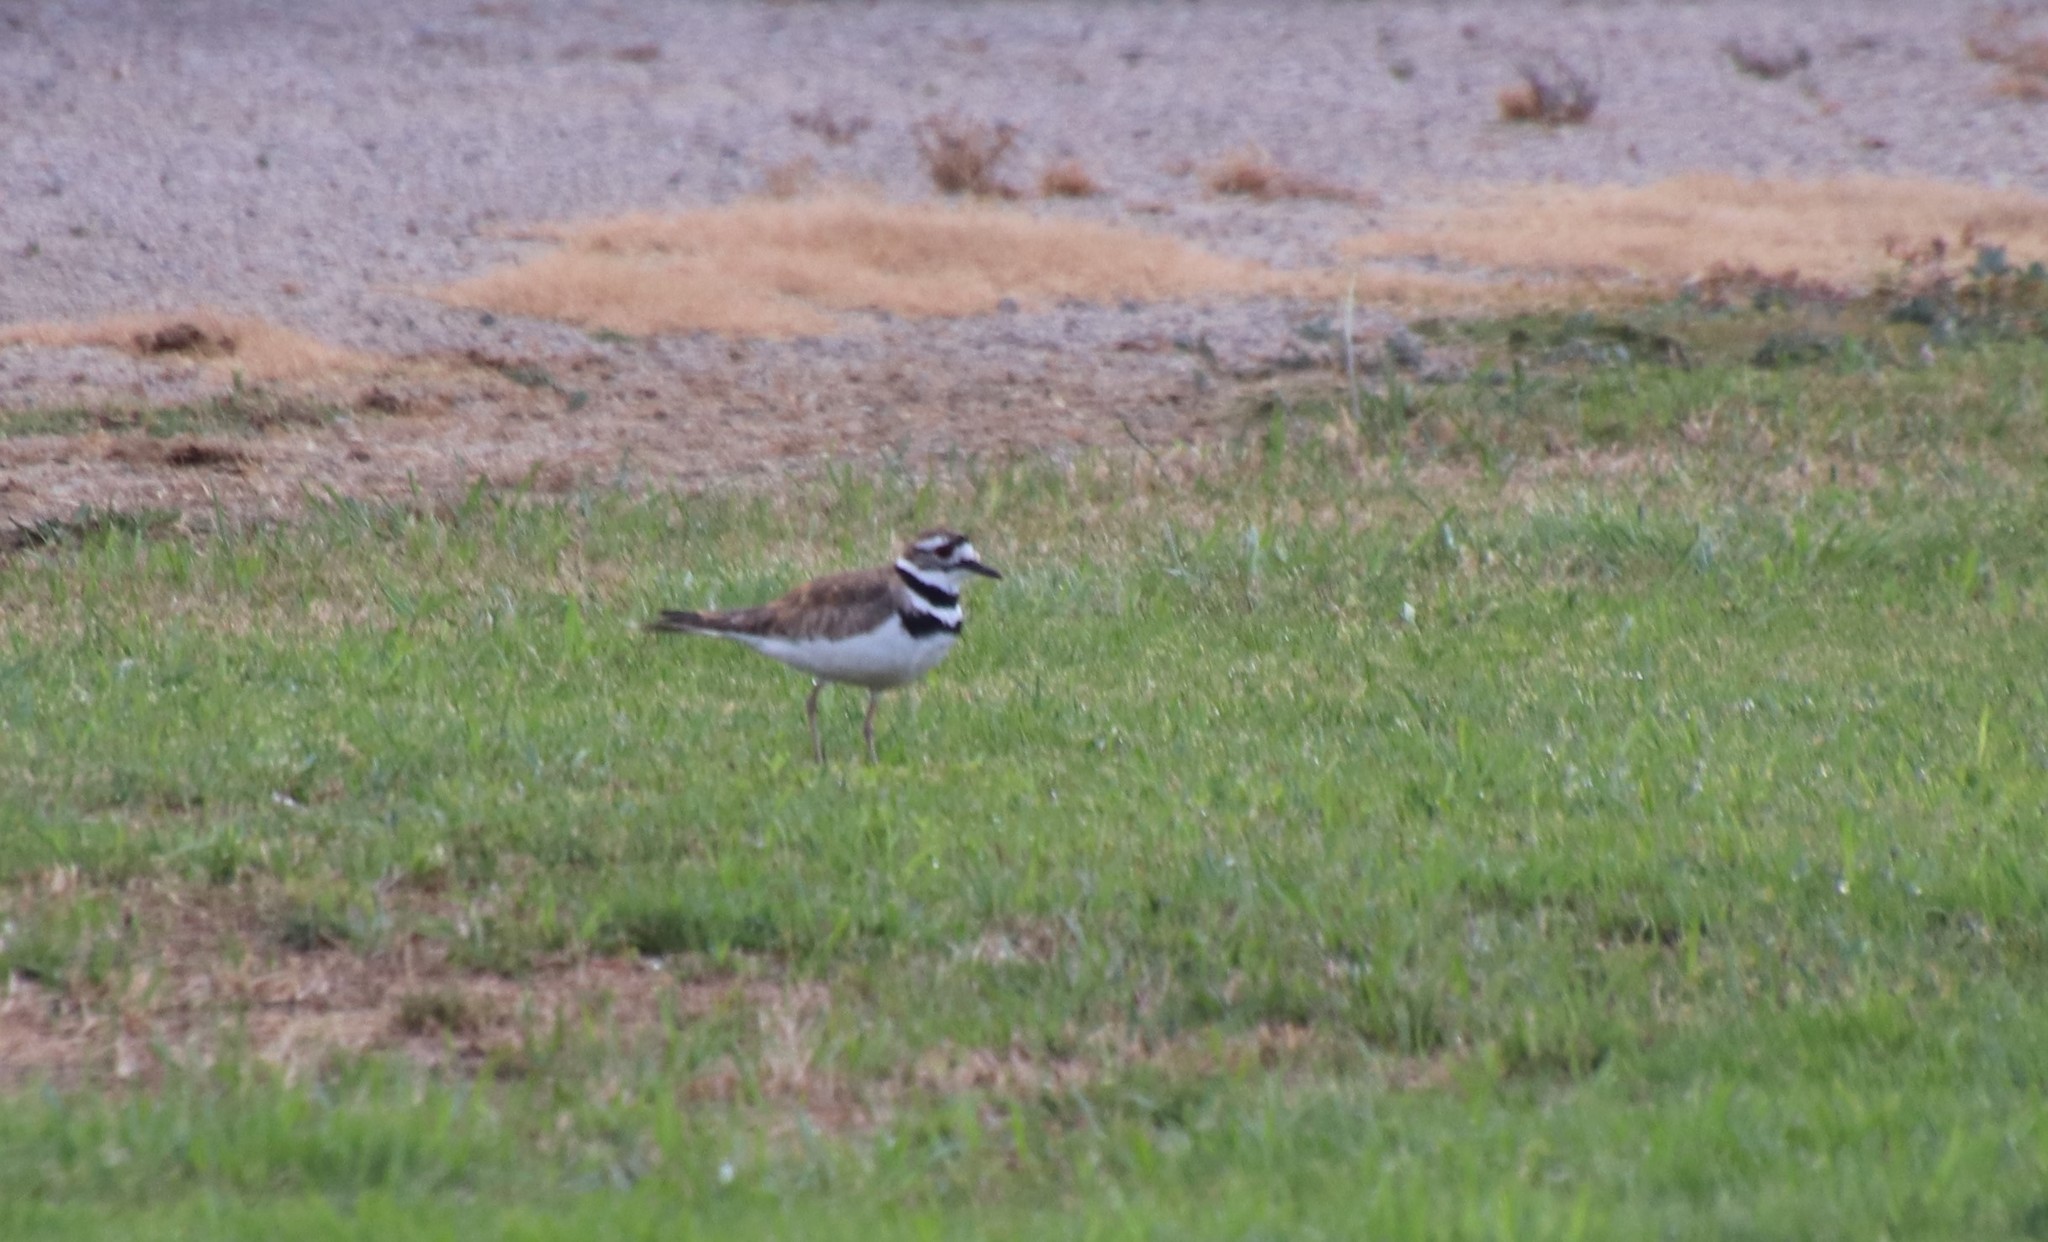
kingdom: Animalia
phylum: Chordata
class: Aves
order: Charadriiformes
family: Charadriidae
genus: Charadrius
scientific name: Charadrius vociferus
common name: Killdeer
